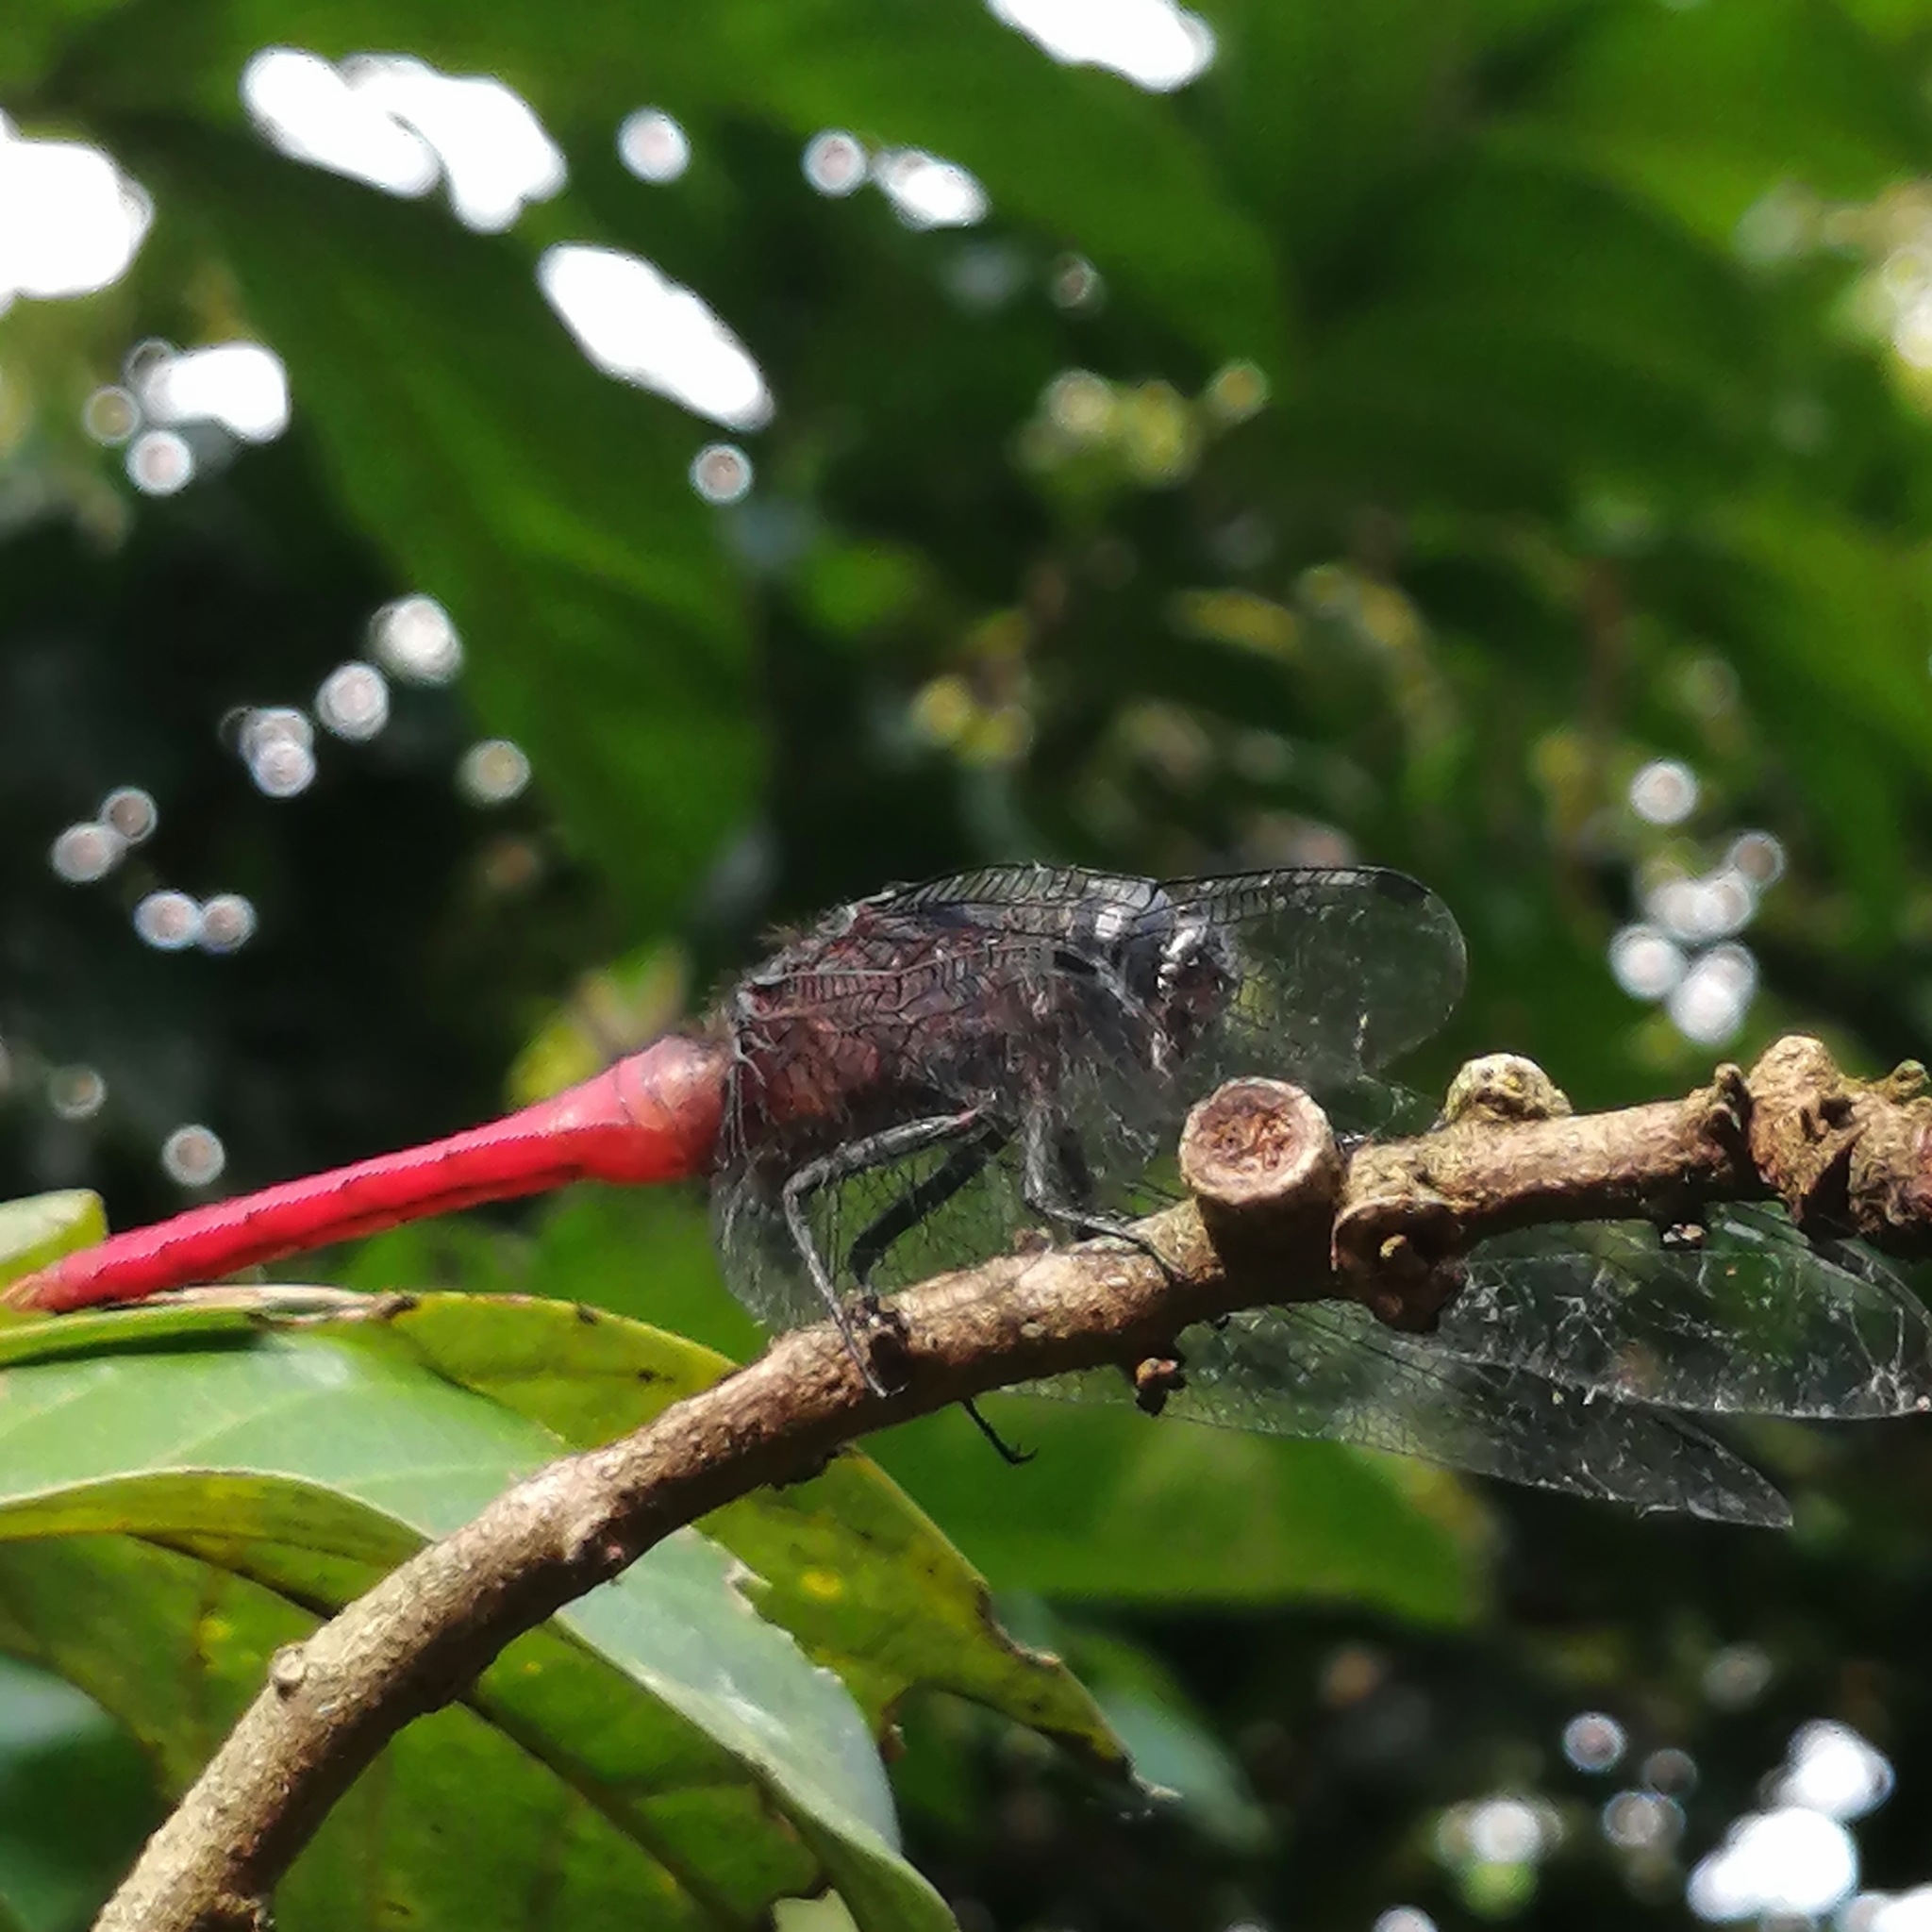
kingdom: Animalia
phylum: Arthropoda
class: Insecta
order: Odonata
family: Libellulidae
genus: Orthetrum
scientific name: Orthetrum chrysis
